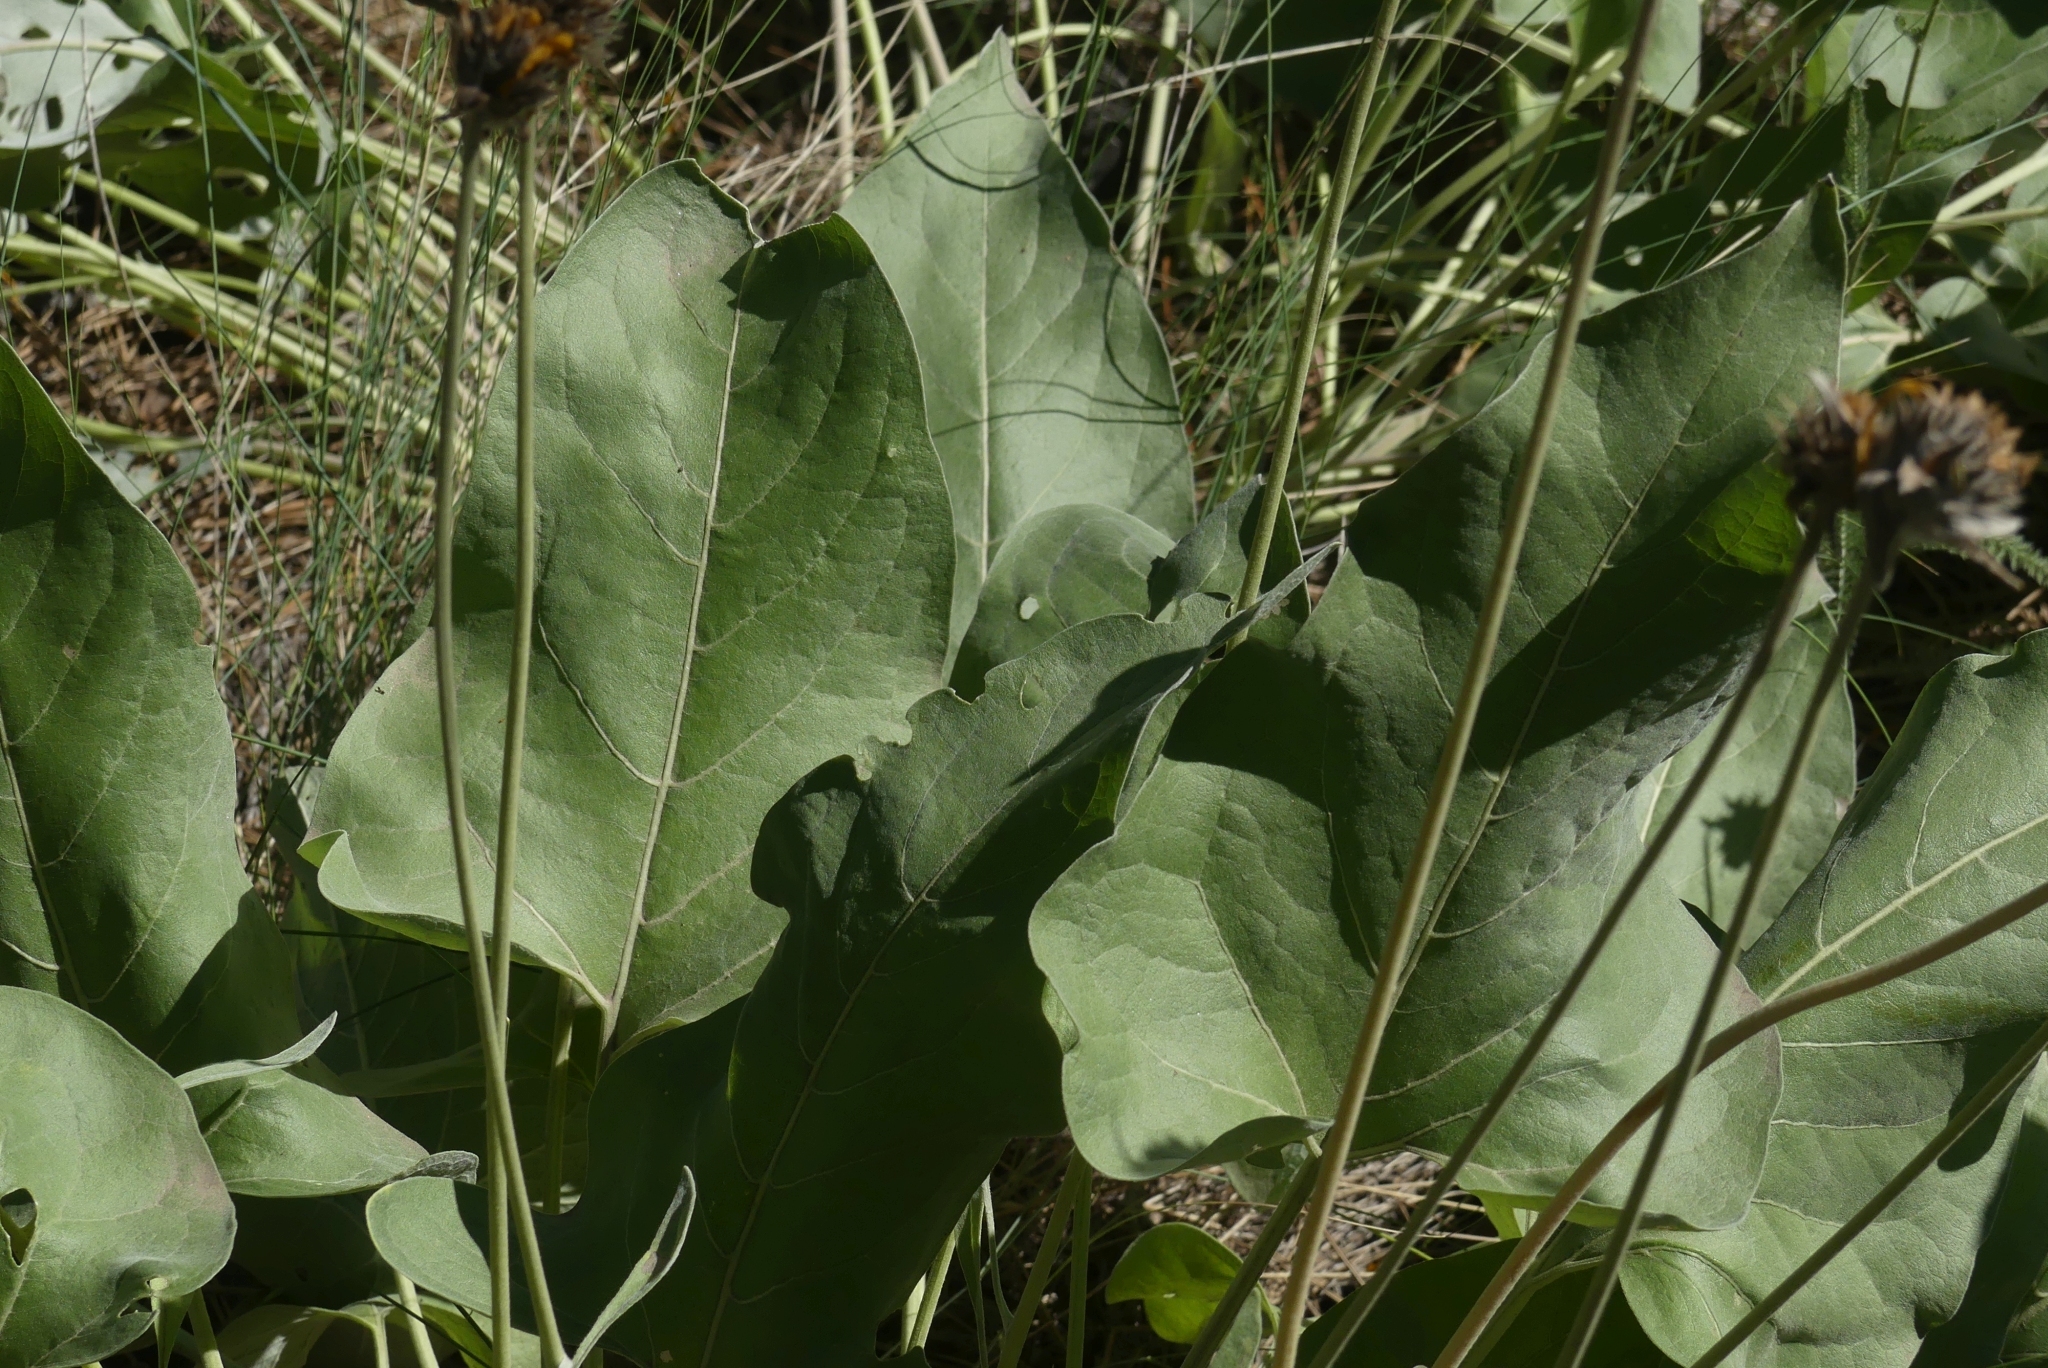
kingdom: Plantae
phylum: Tracheophyta
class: Magnoliopsida
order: Asterales
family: Asteraceae
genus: Wyethia
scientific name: Wyethia sagittata
